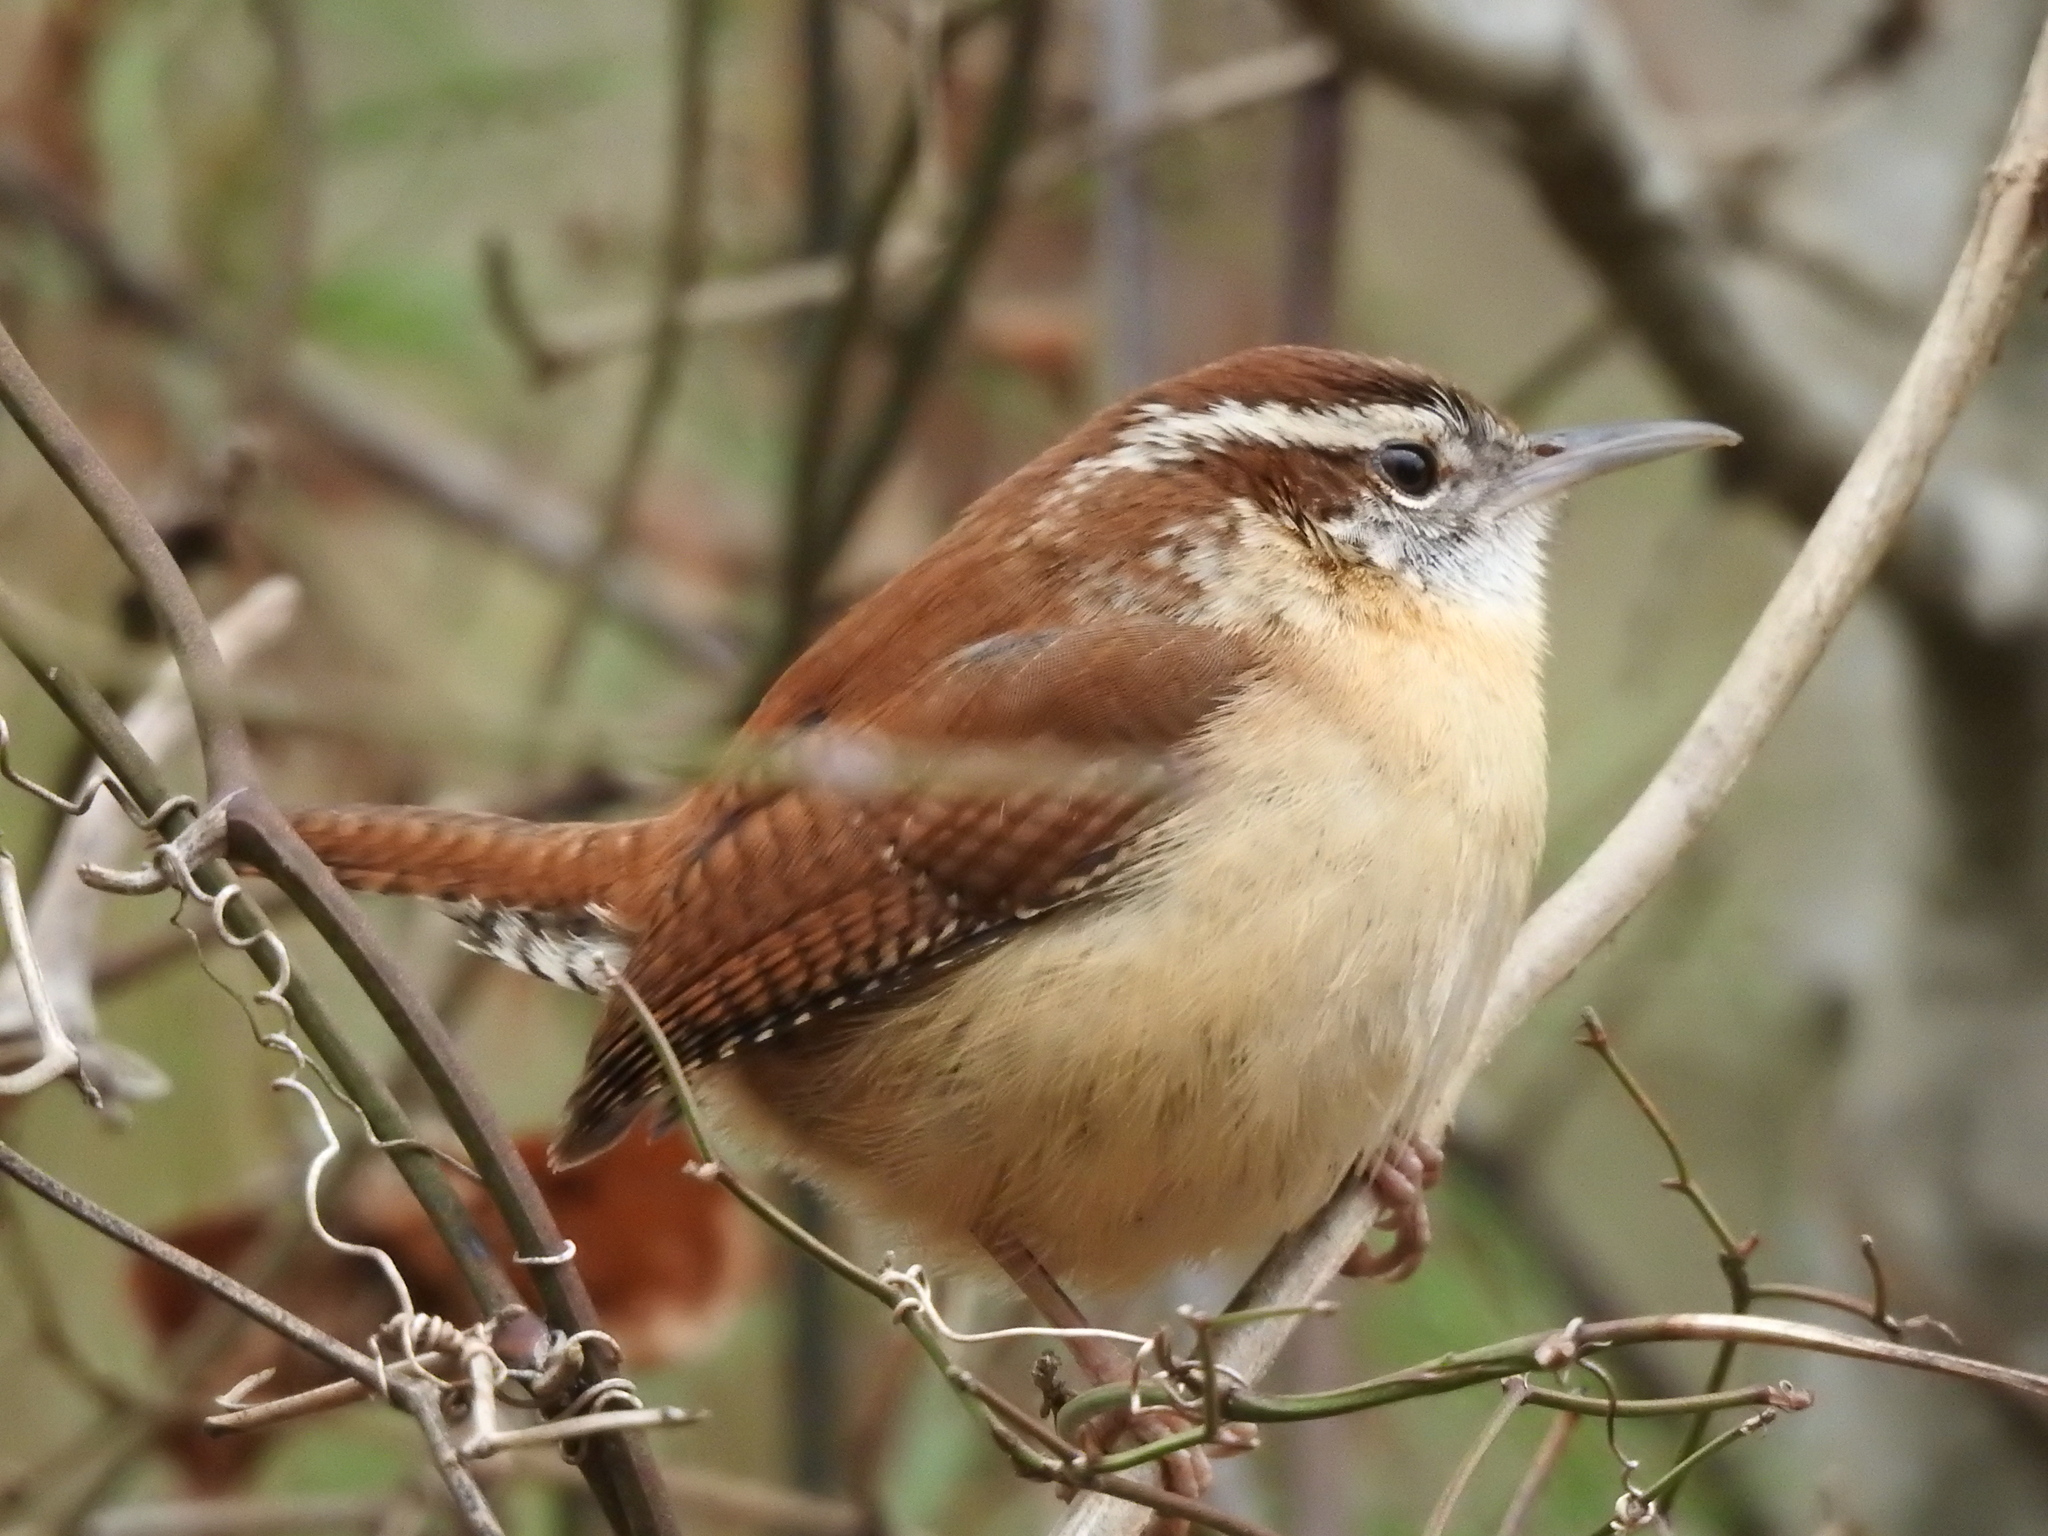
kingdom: Animalia
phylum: Chordata
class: Aves
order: Passeriformes
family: Troglodytidae
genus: Thryothorus
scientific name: Thryothorus ludovicianus
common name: Carolina wren
